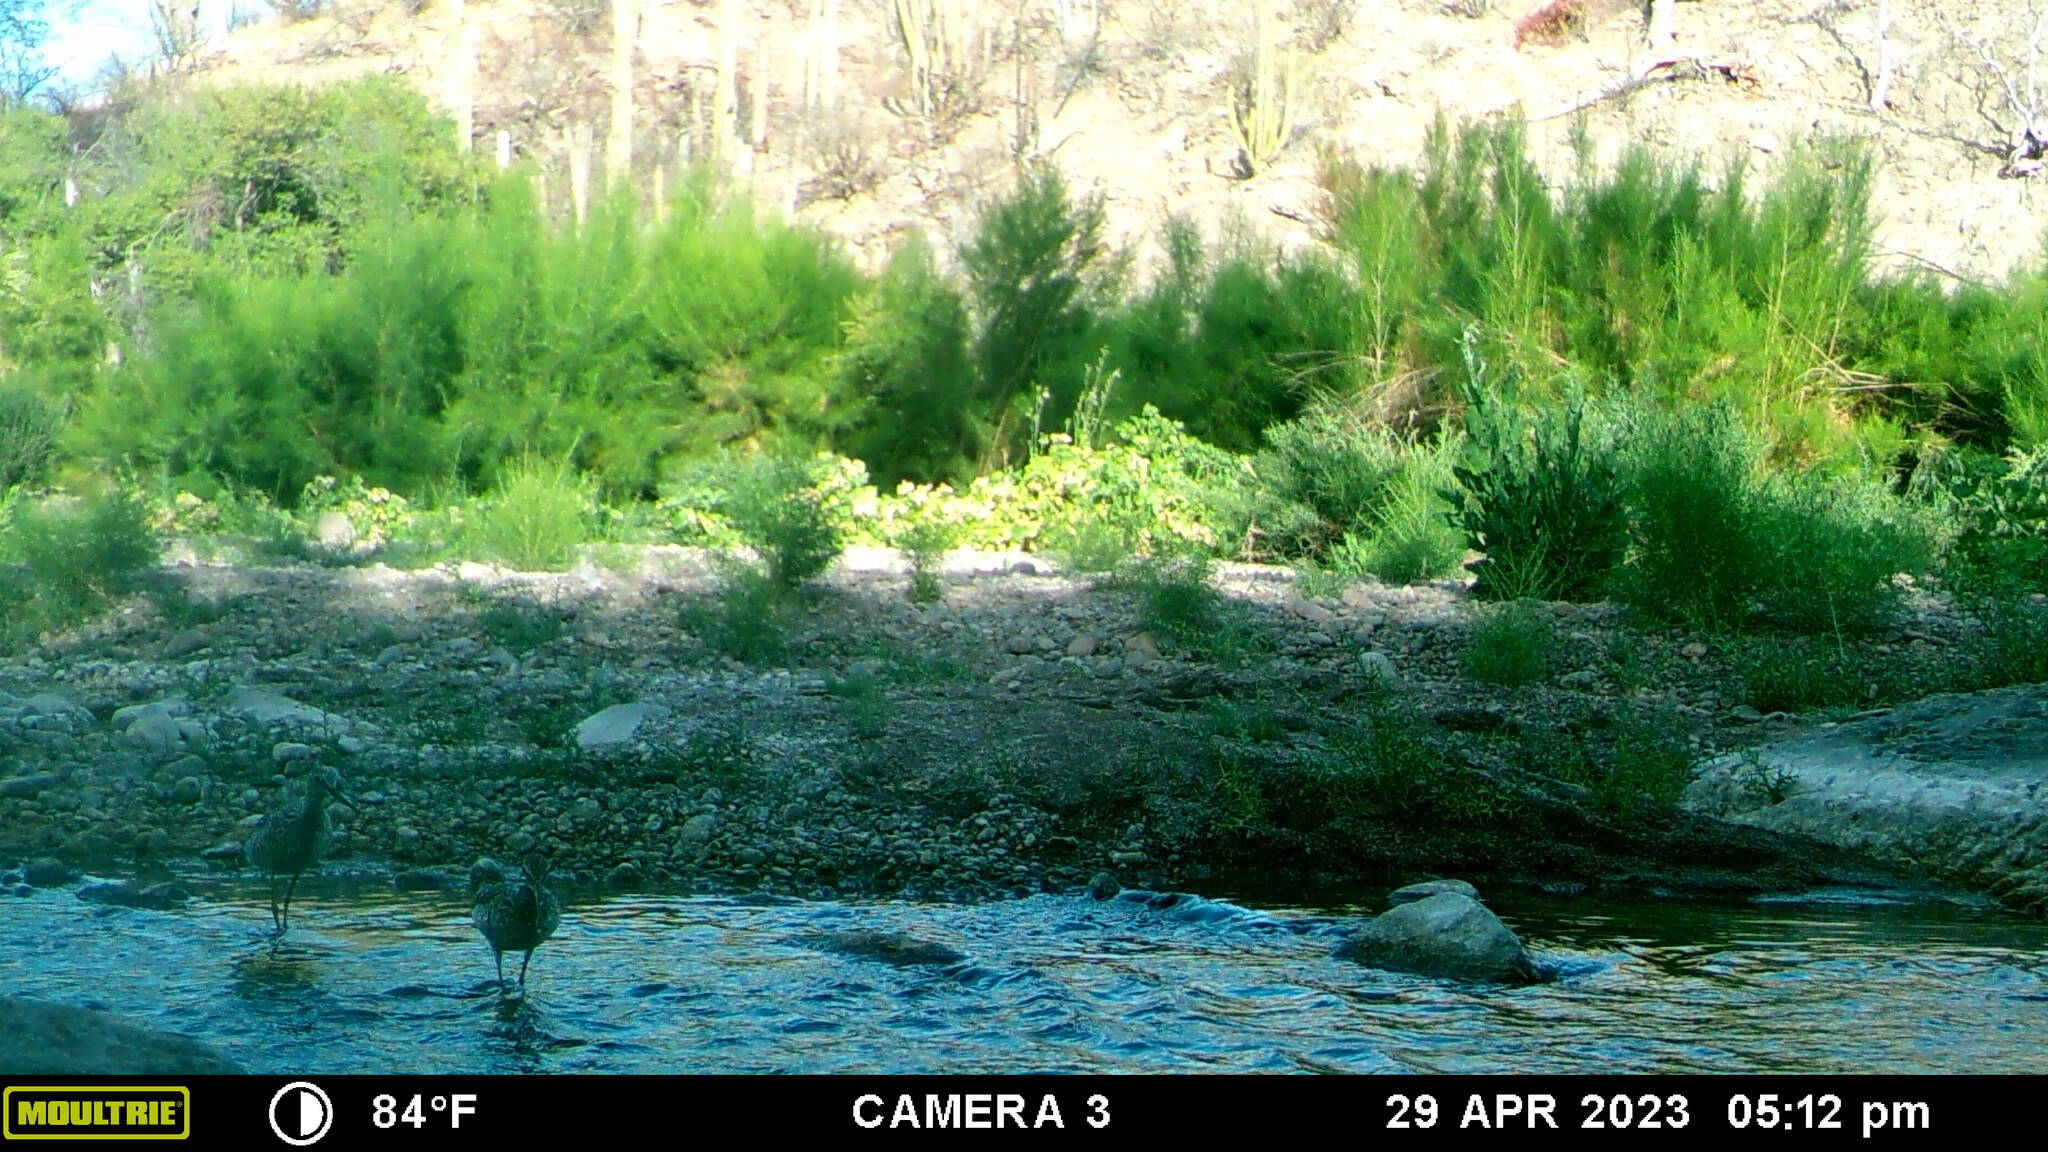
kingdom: Animalia
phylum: Chordata
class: Aves
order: Charadriiformes
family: Scolopacidae
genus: Tringa
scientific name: Tringa semipalmata
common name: Willet
